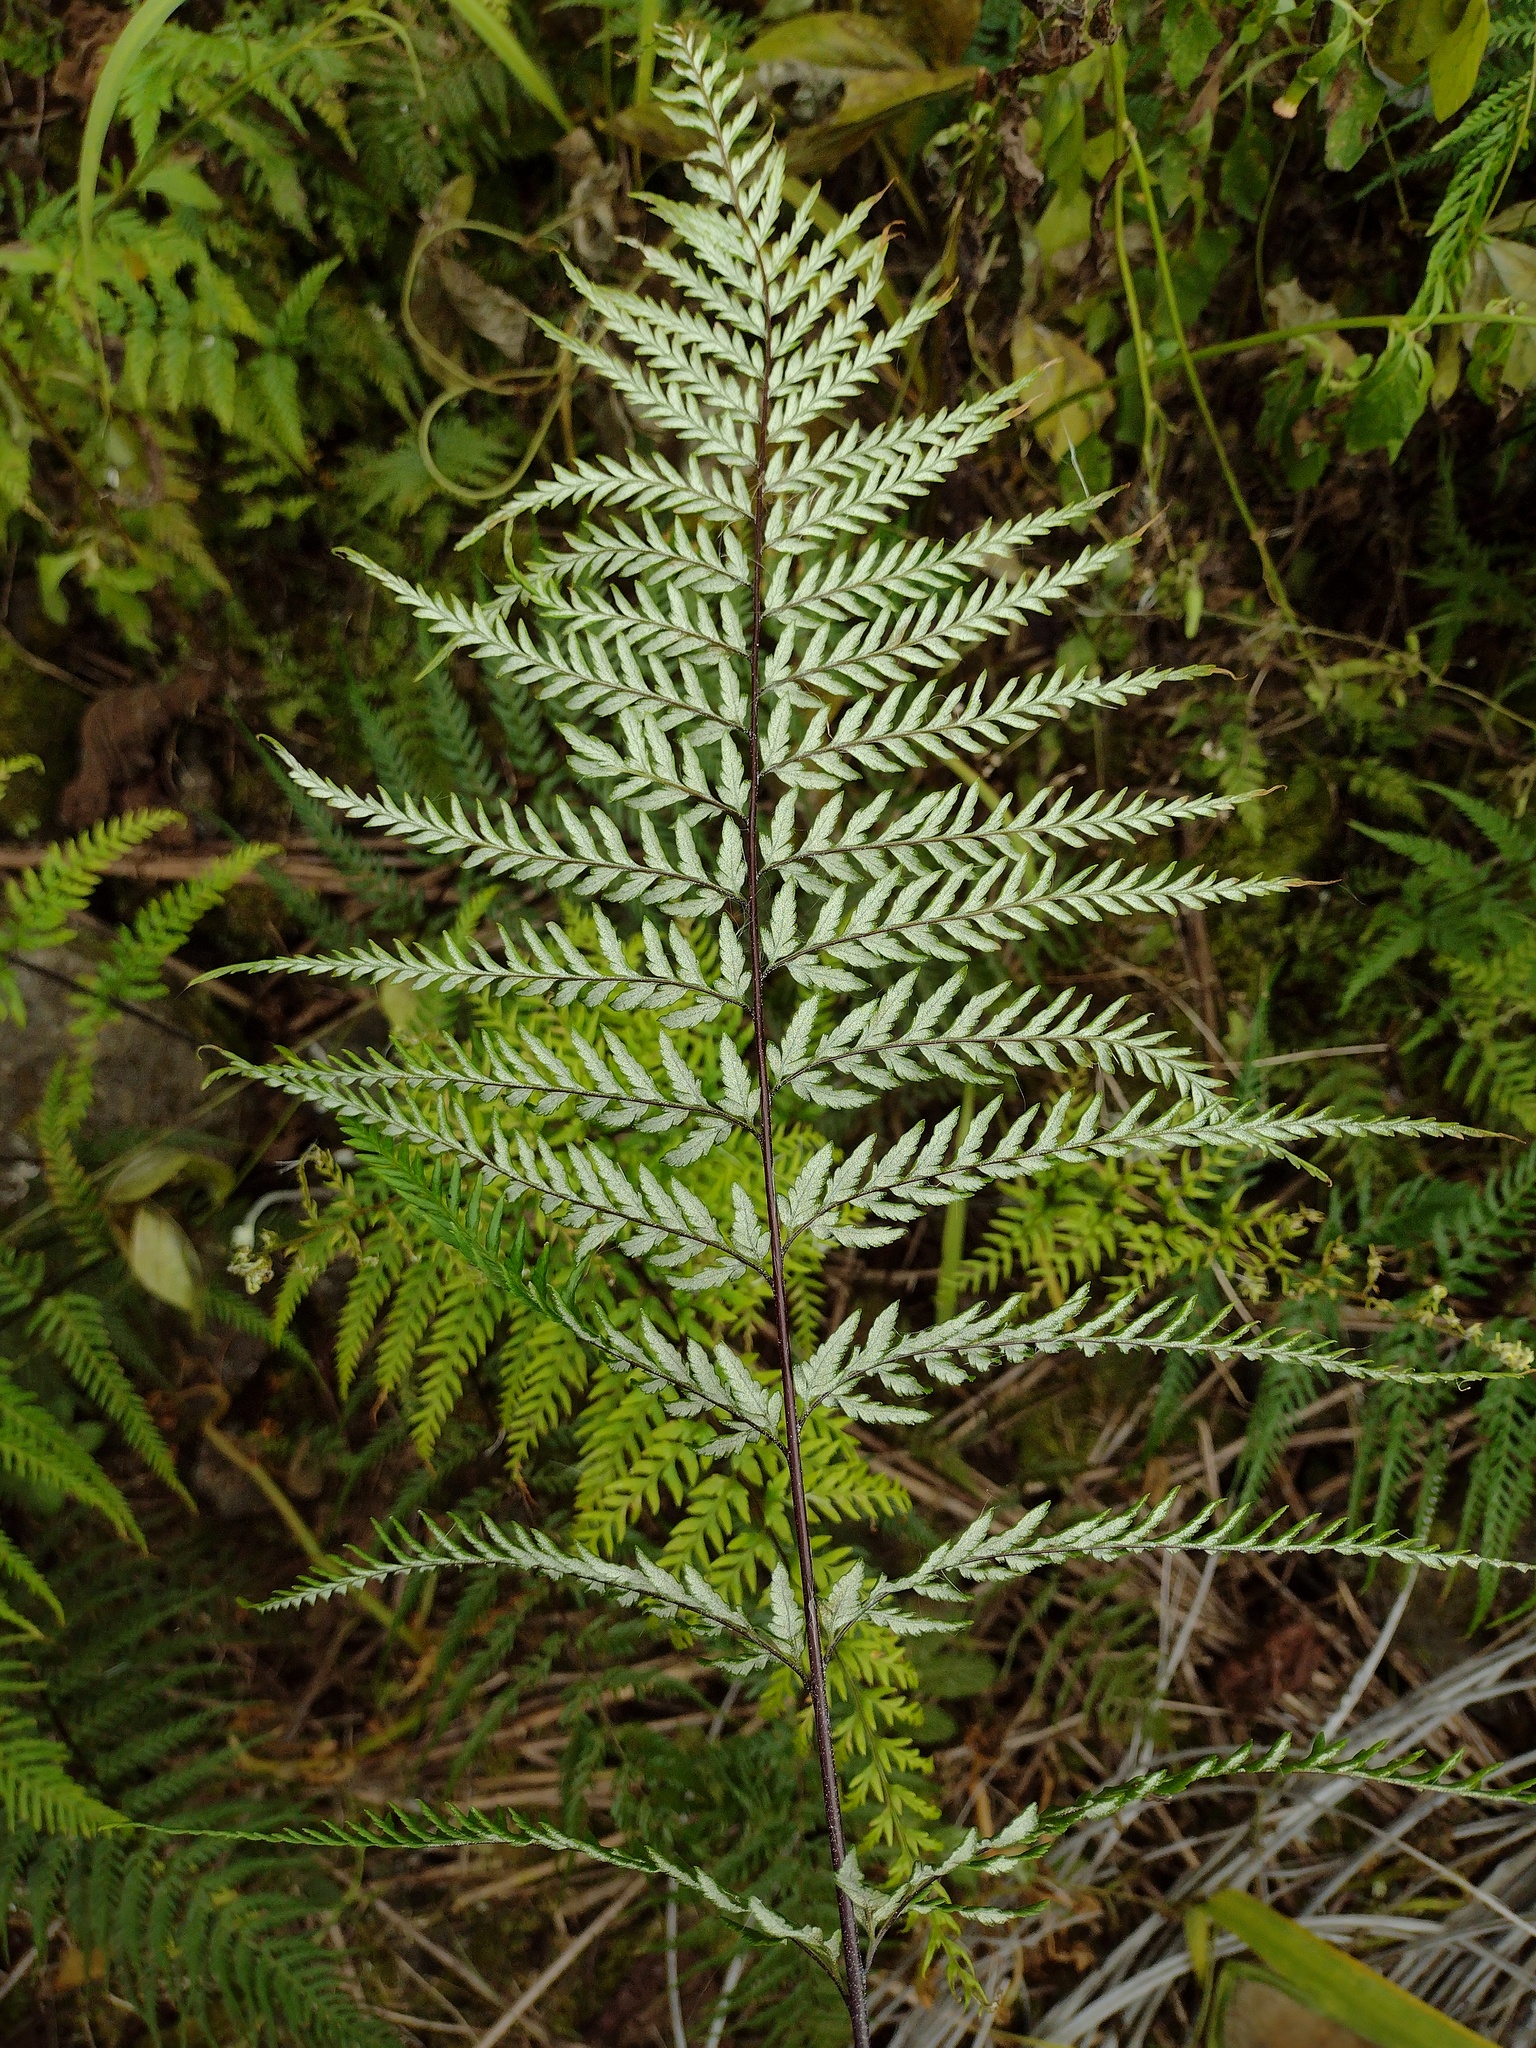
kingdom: Plantae
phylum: Tracheophyta
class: Polypodiopsida
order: Polypodiales
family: Pteridaceae
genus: Pityrogramma
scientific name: Pityrogramma calomelanos
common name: Dixie silverback fern
